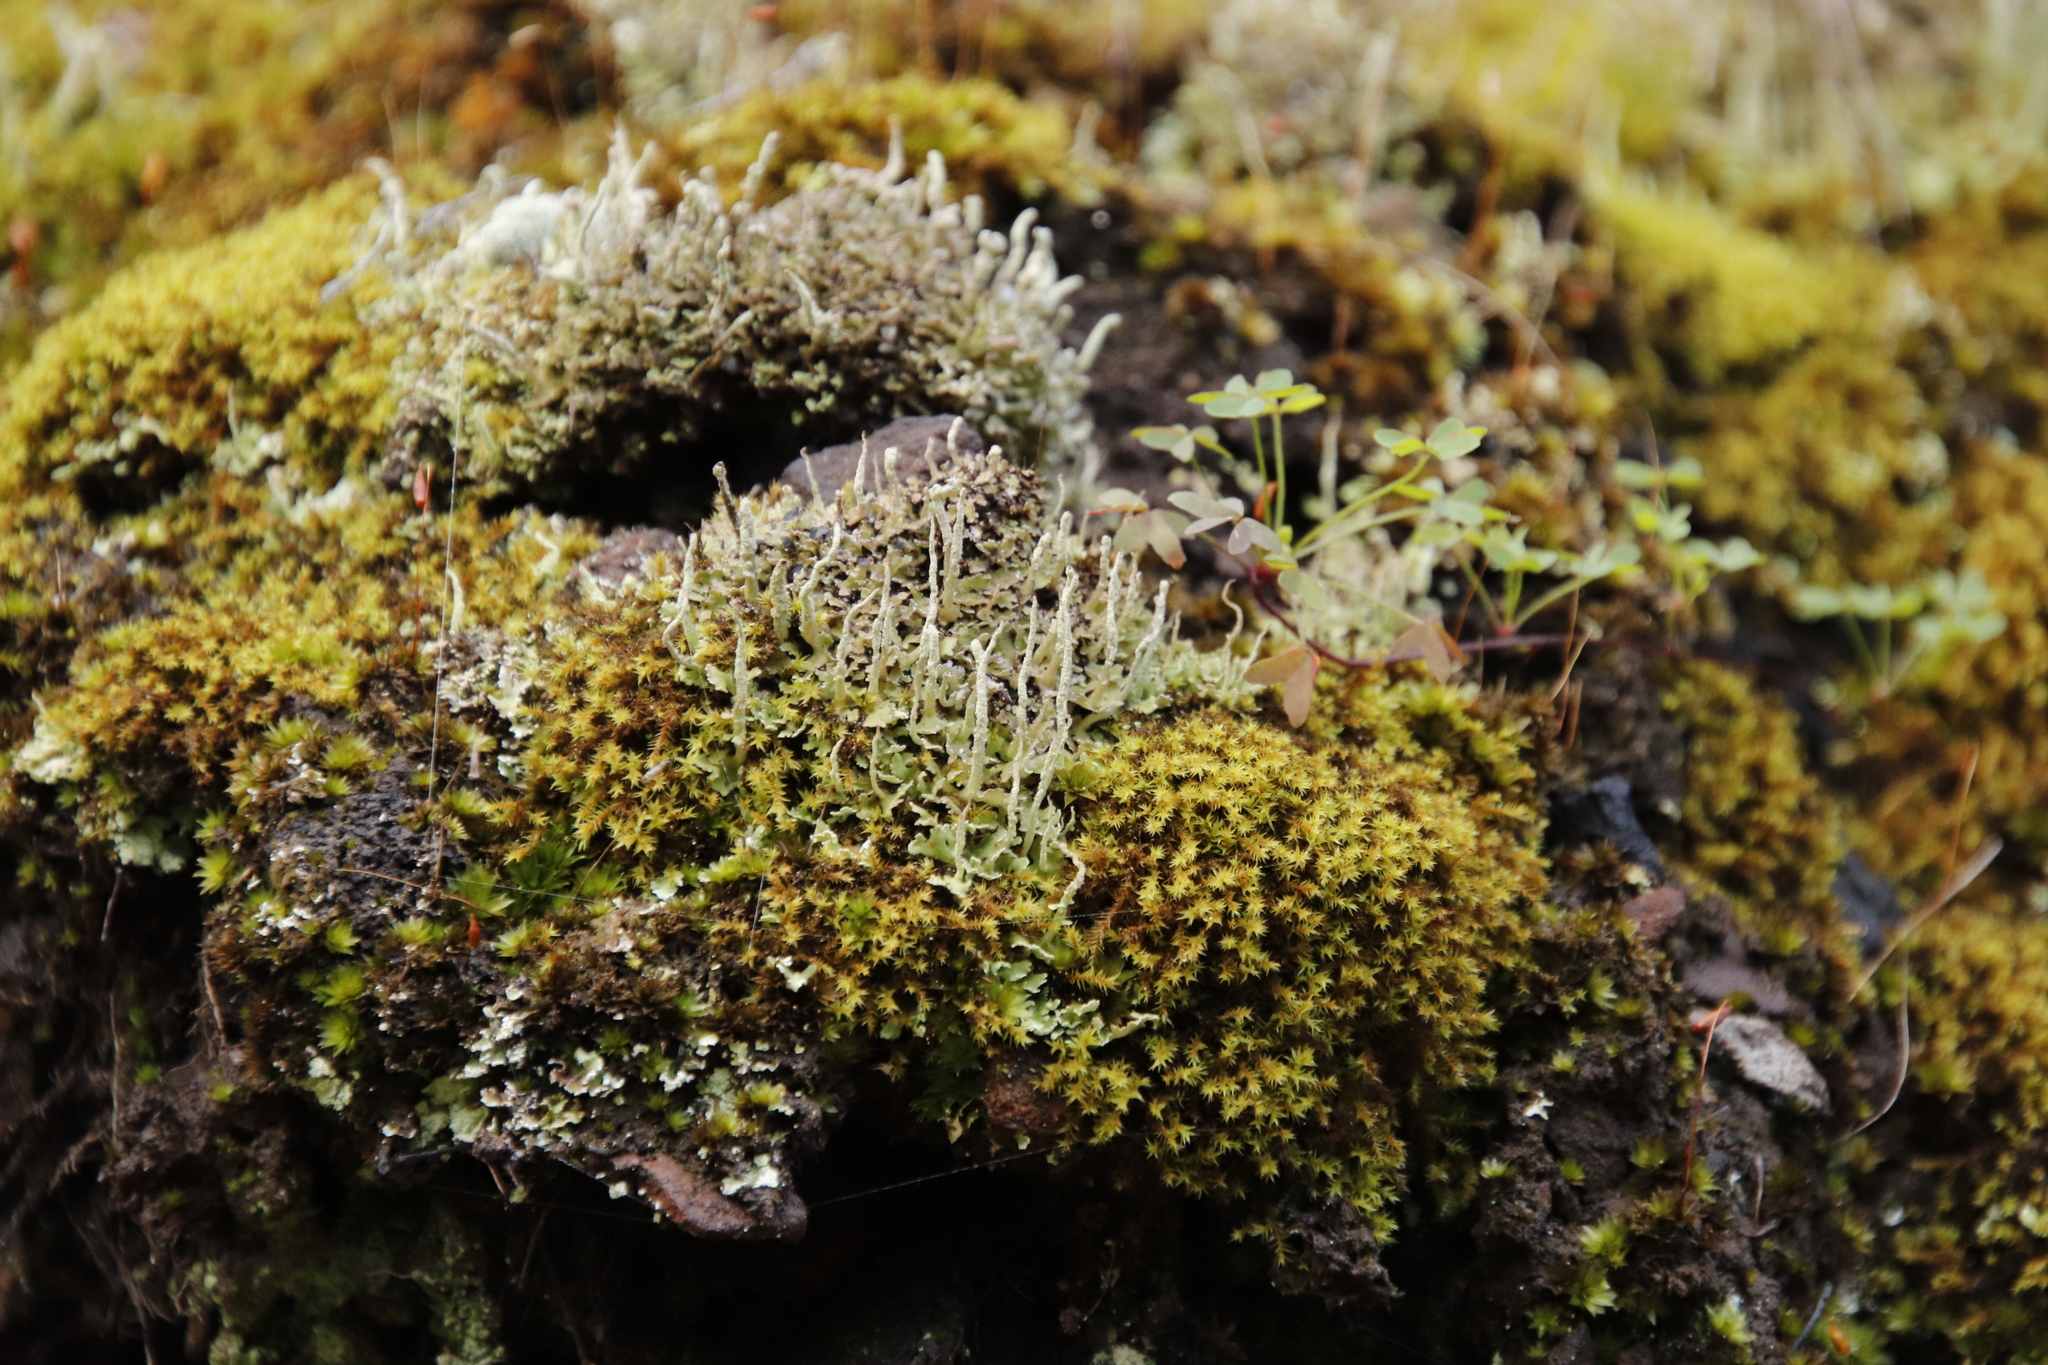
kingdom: Plantae
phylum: Bryophyta
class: Bryopsida
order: Pottiales
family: Pottiaceae
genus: Triquetrella
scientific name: Triquetrella mxinwana
